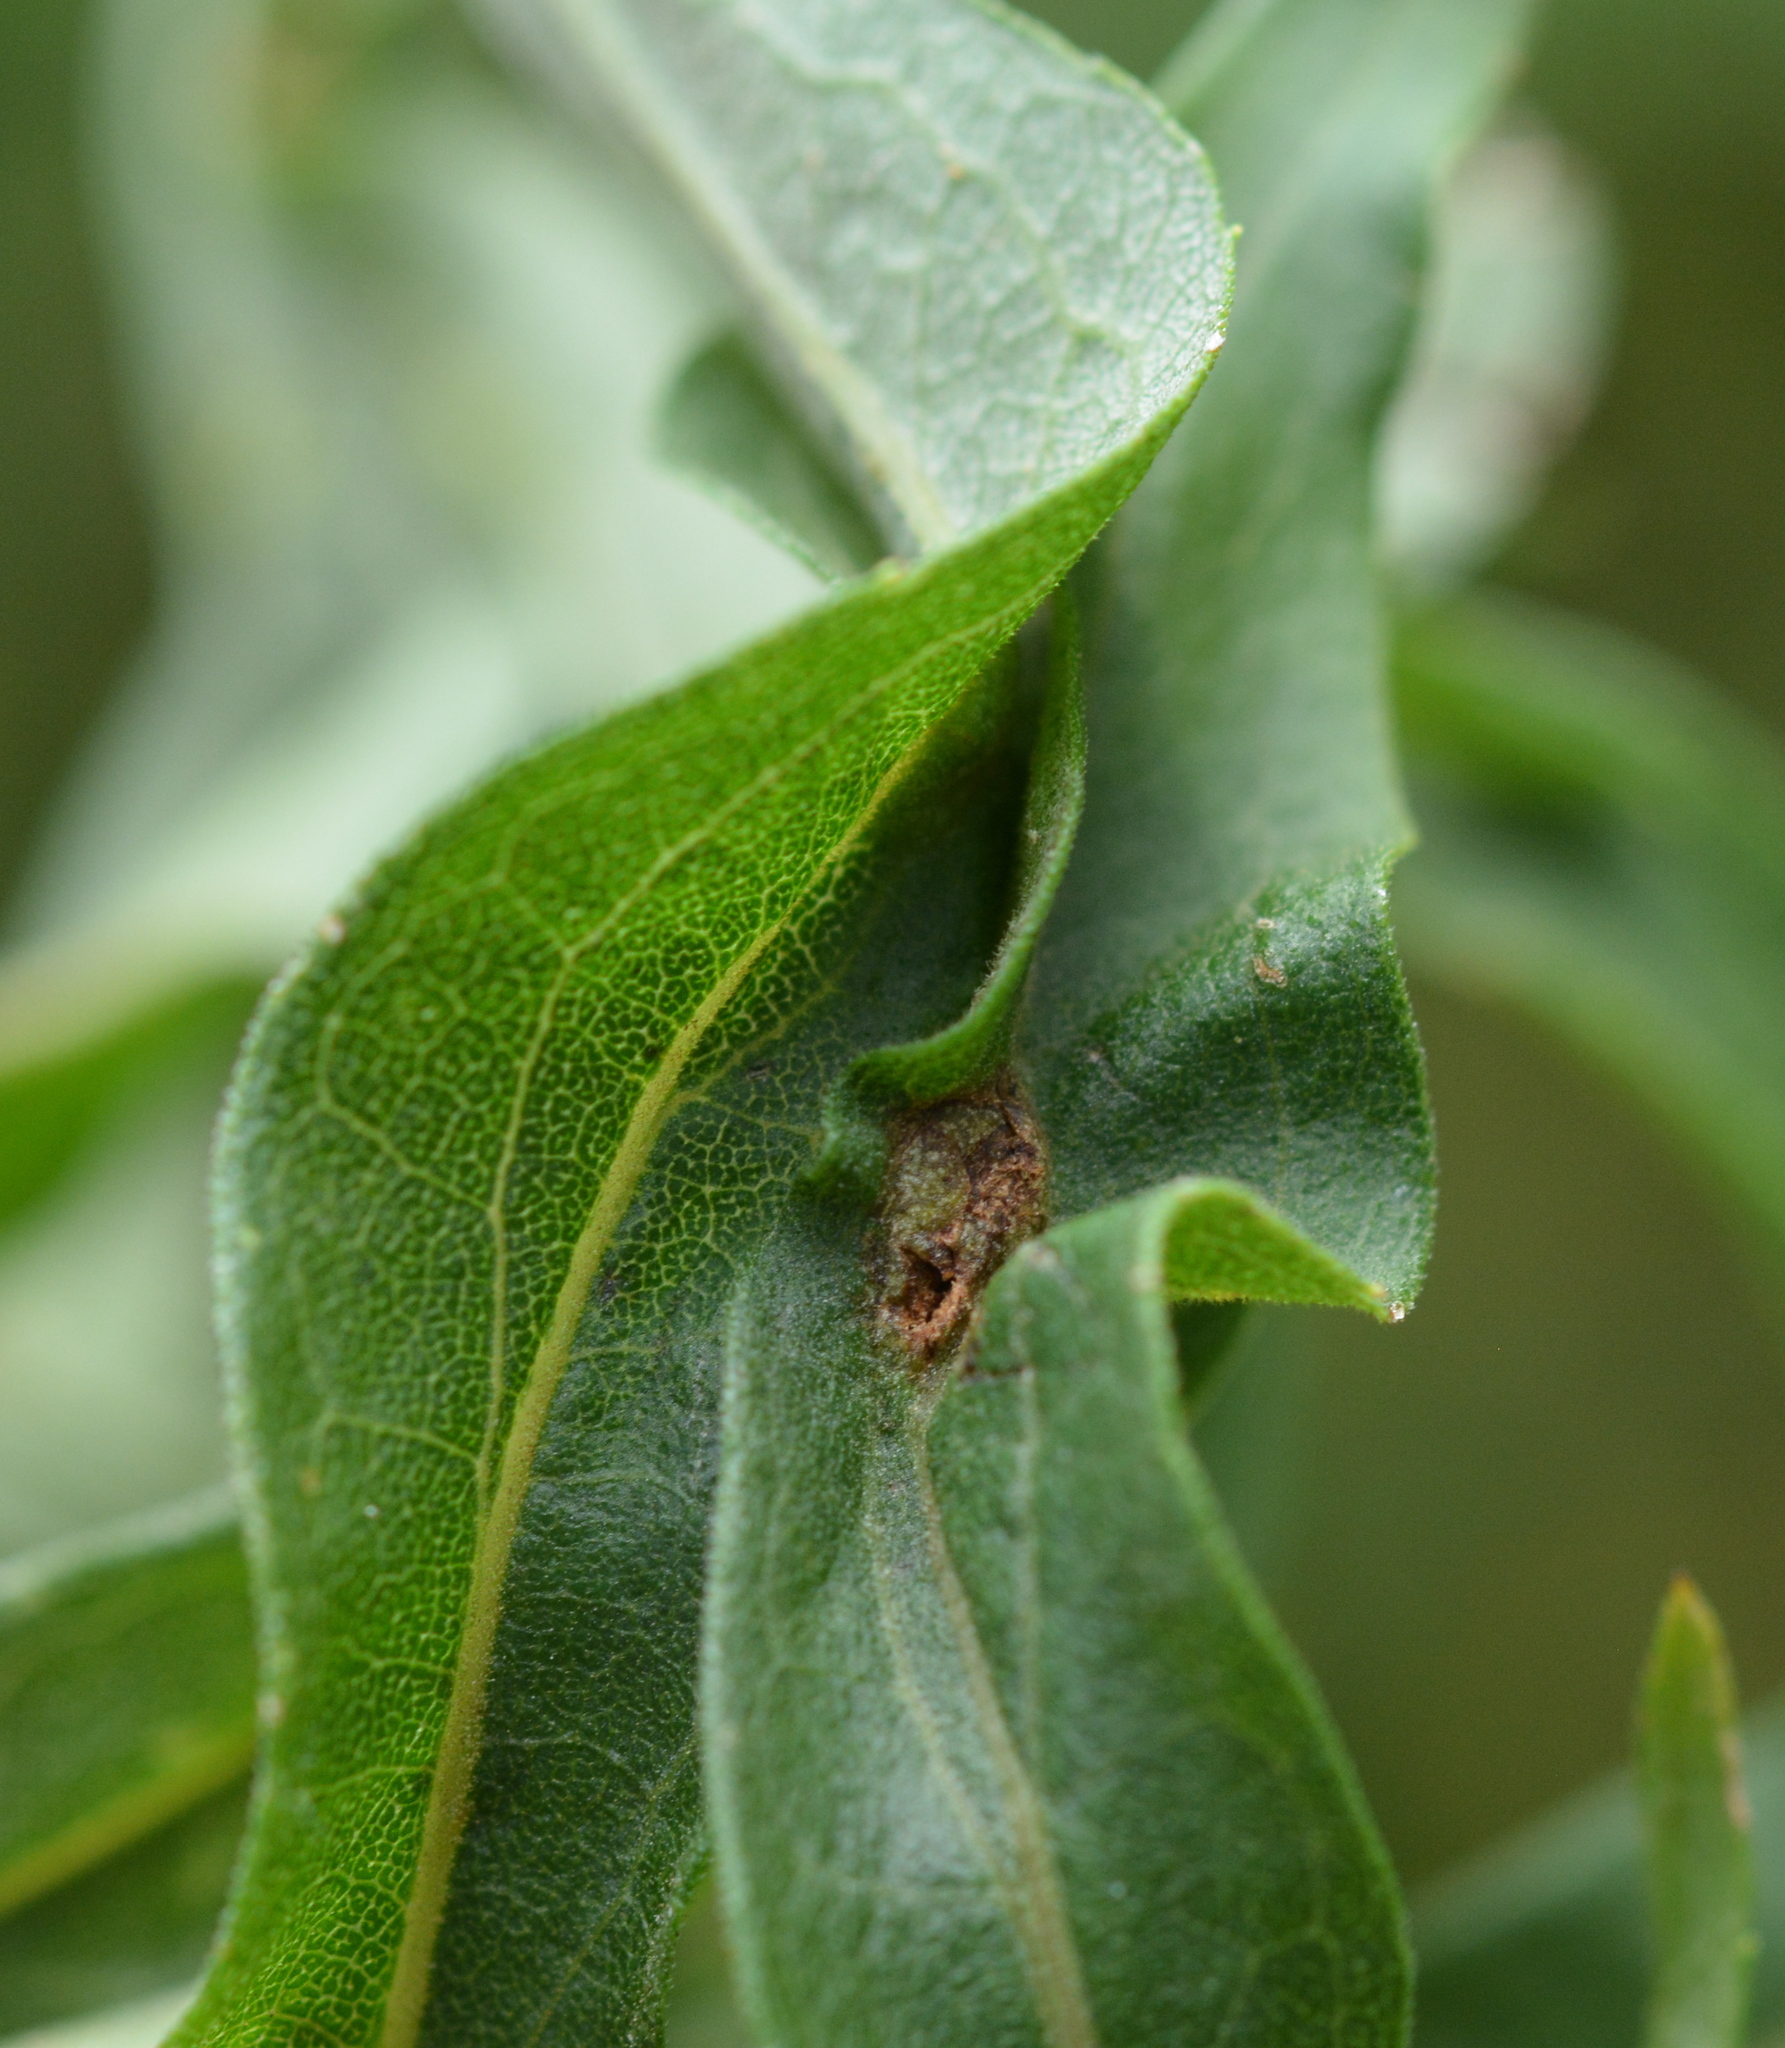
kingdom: Animalia
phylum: Arthropoda
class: Insecta
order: Diptera
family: Cecidomyiidae
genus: Asphondylia
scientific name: Asphondylia solidaginis
